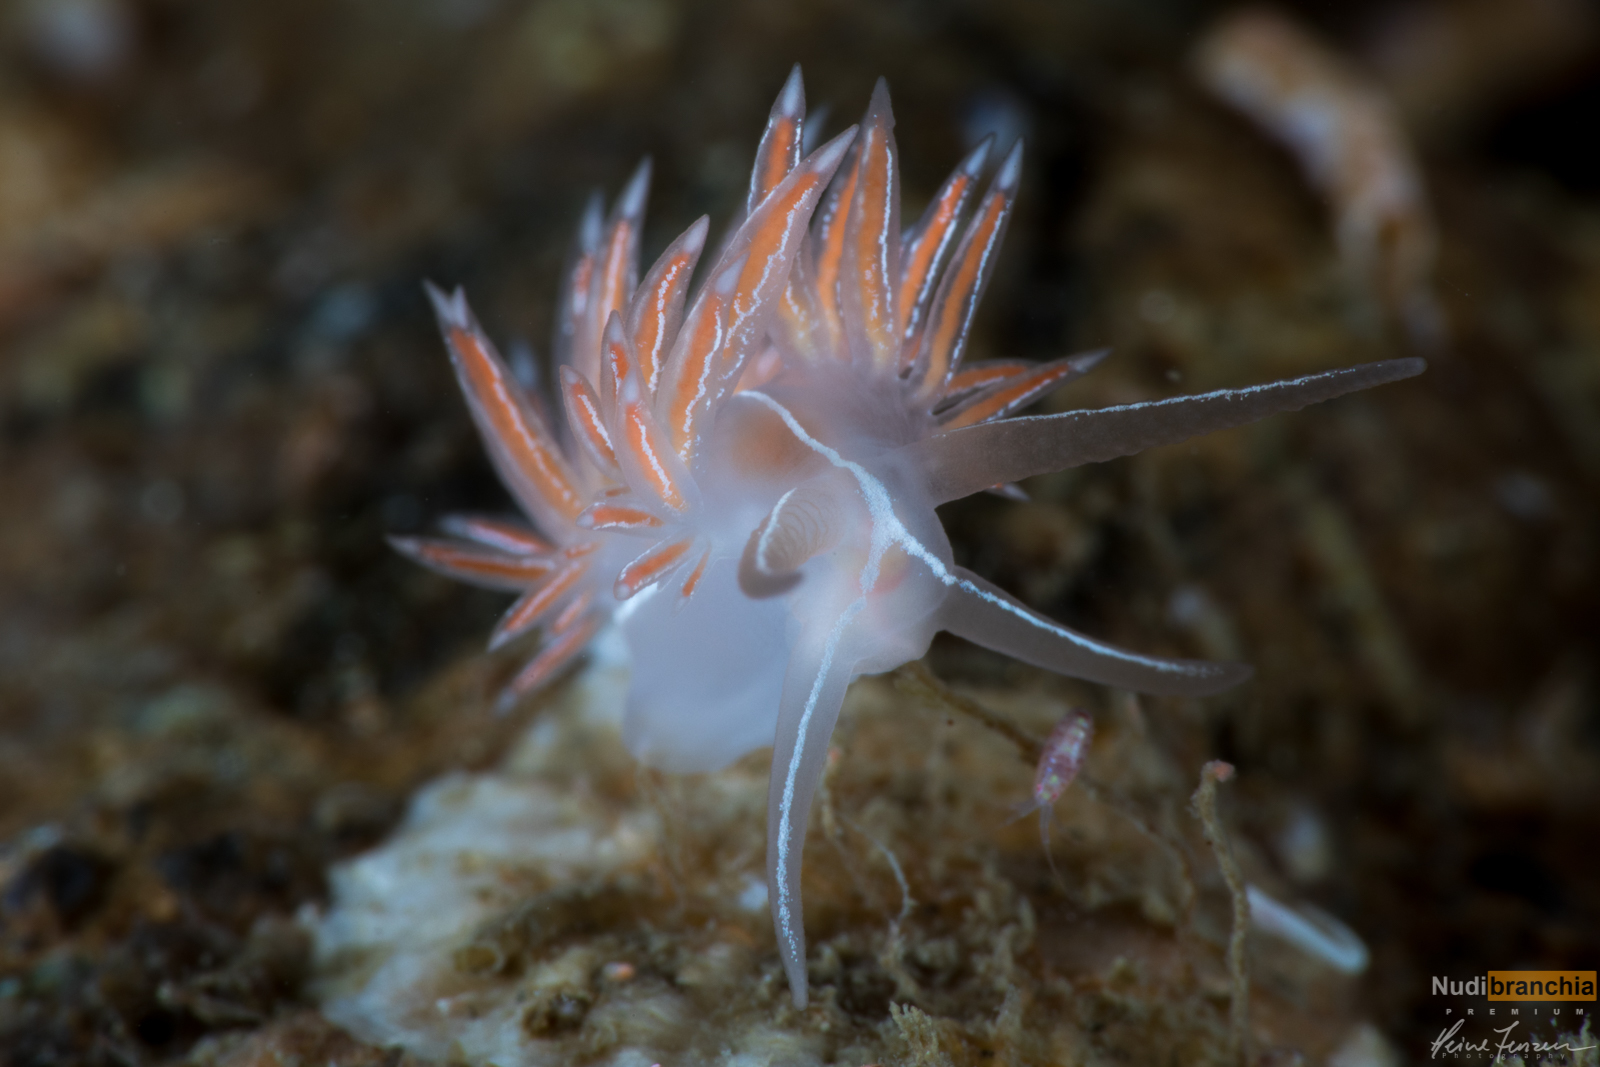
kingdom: Animalia
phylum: Mollusca
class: Gastropoda
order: Nudibranchia
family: Coryphellidae
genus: Coryphella
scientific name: Coryphella chriskaugei
